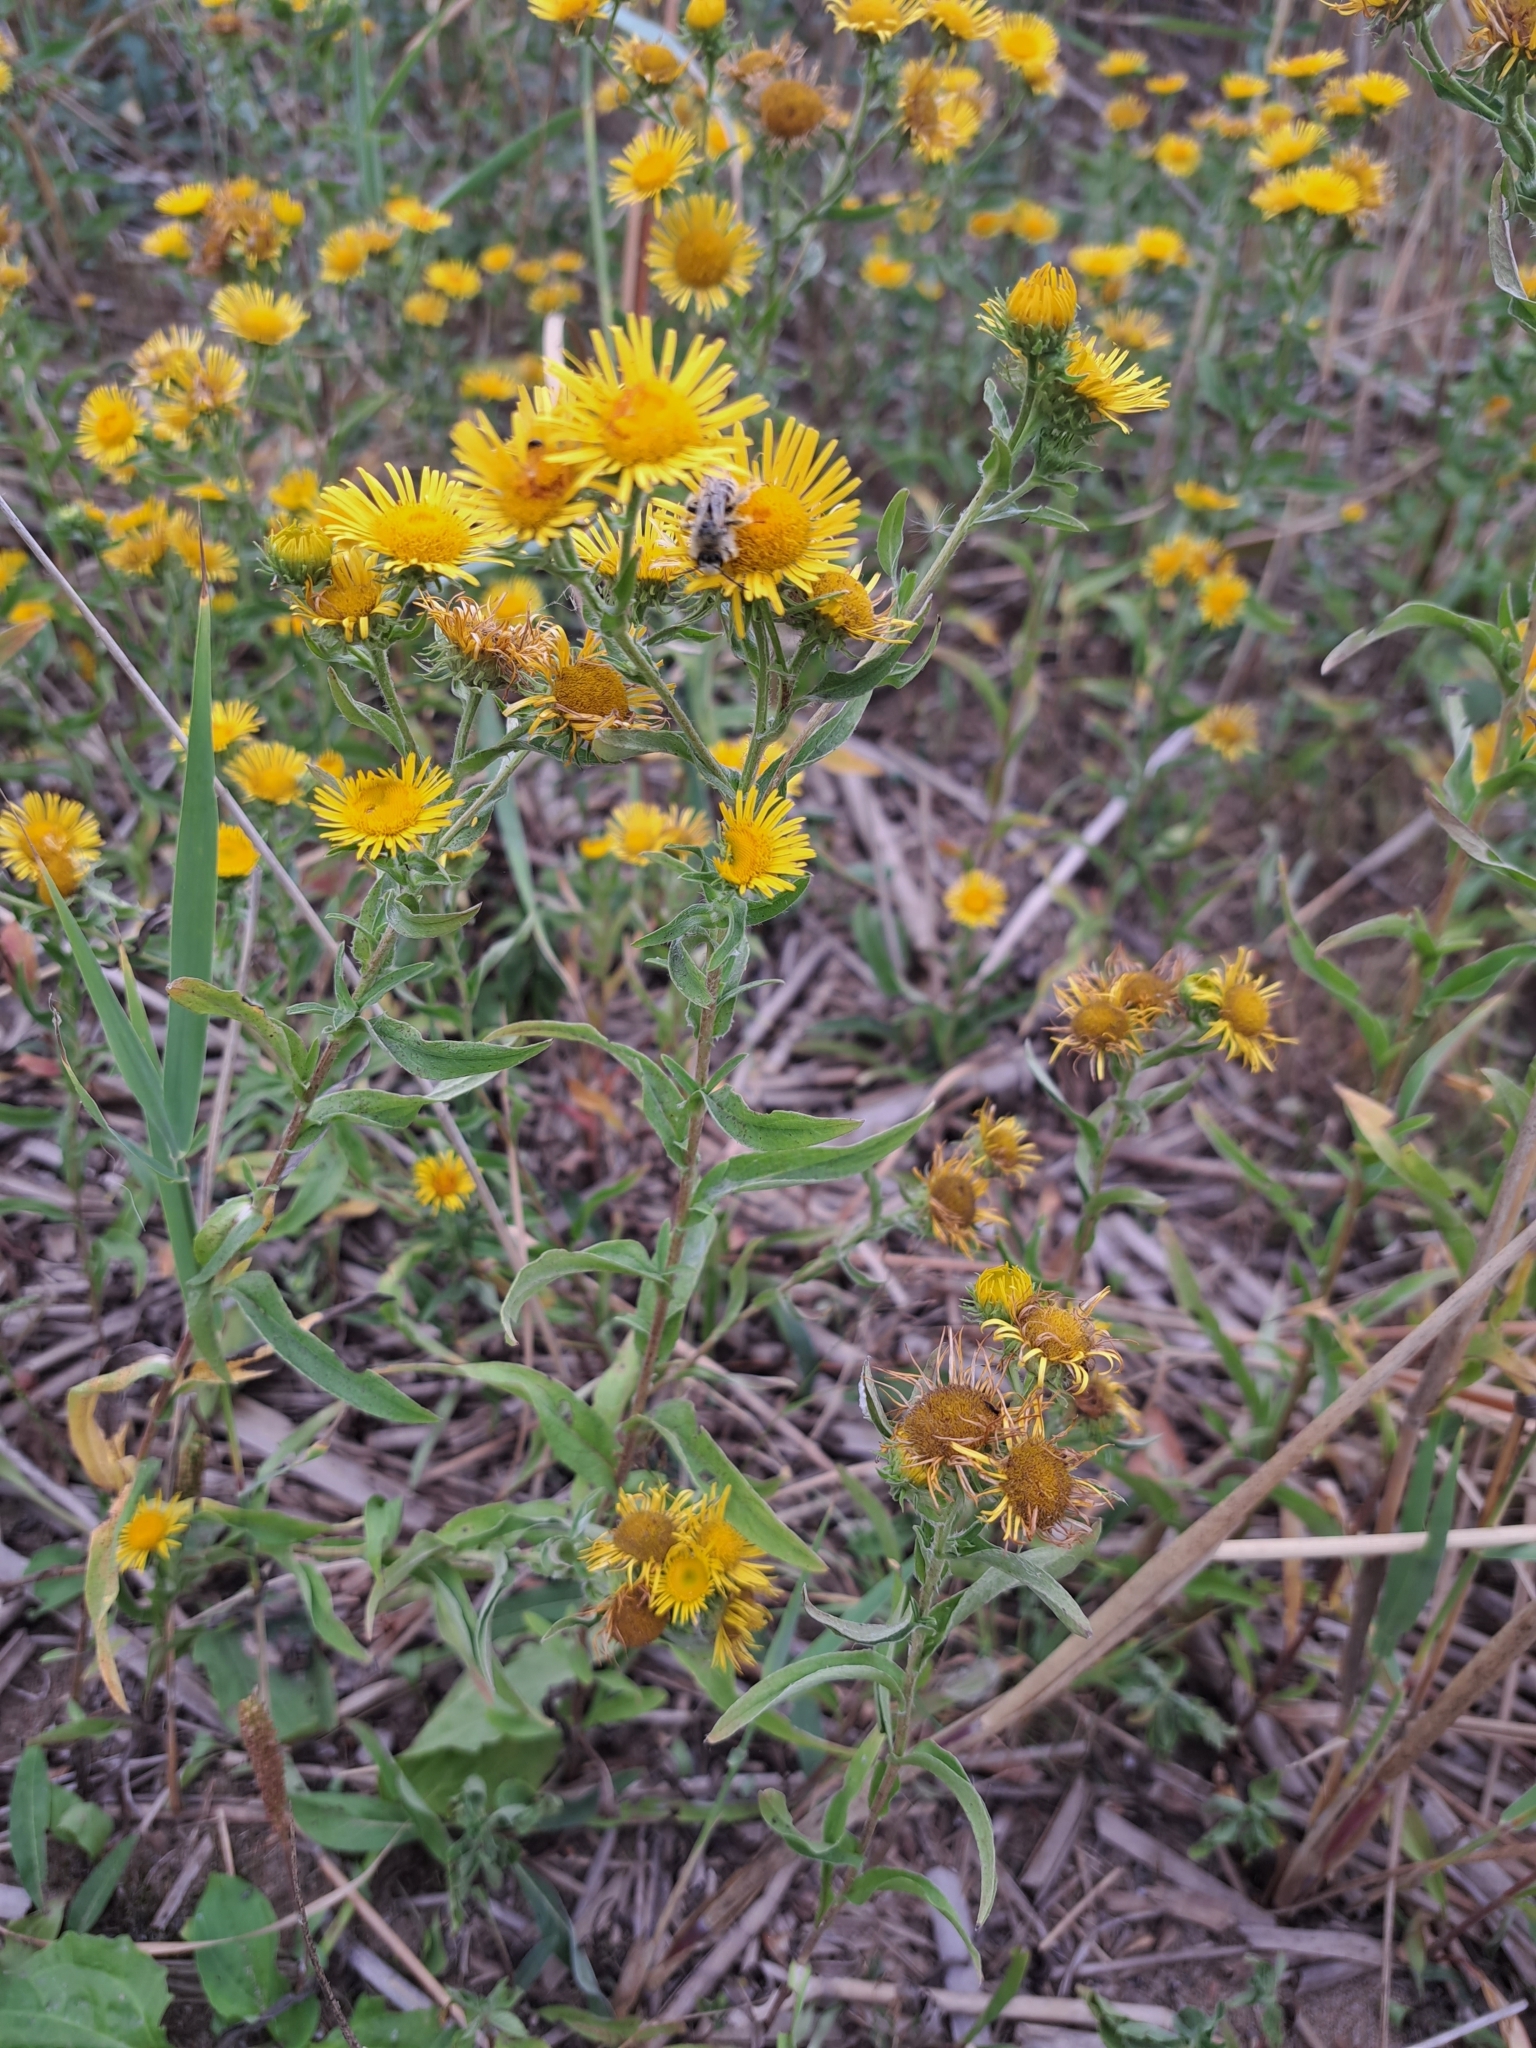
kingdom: Plantae
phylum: Tracheophyta
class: Magnoliopsida
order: Asterales
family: Asteraceae
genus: Pentanema
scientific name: Pentanema britannicum
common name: British elecampane
